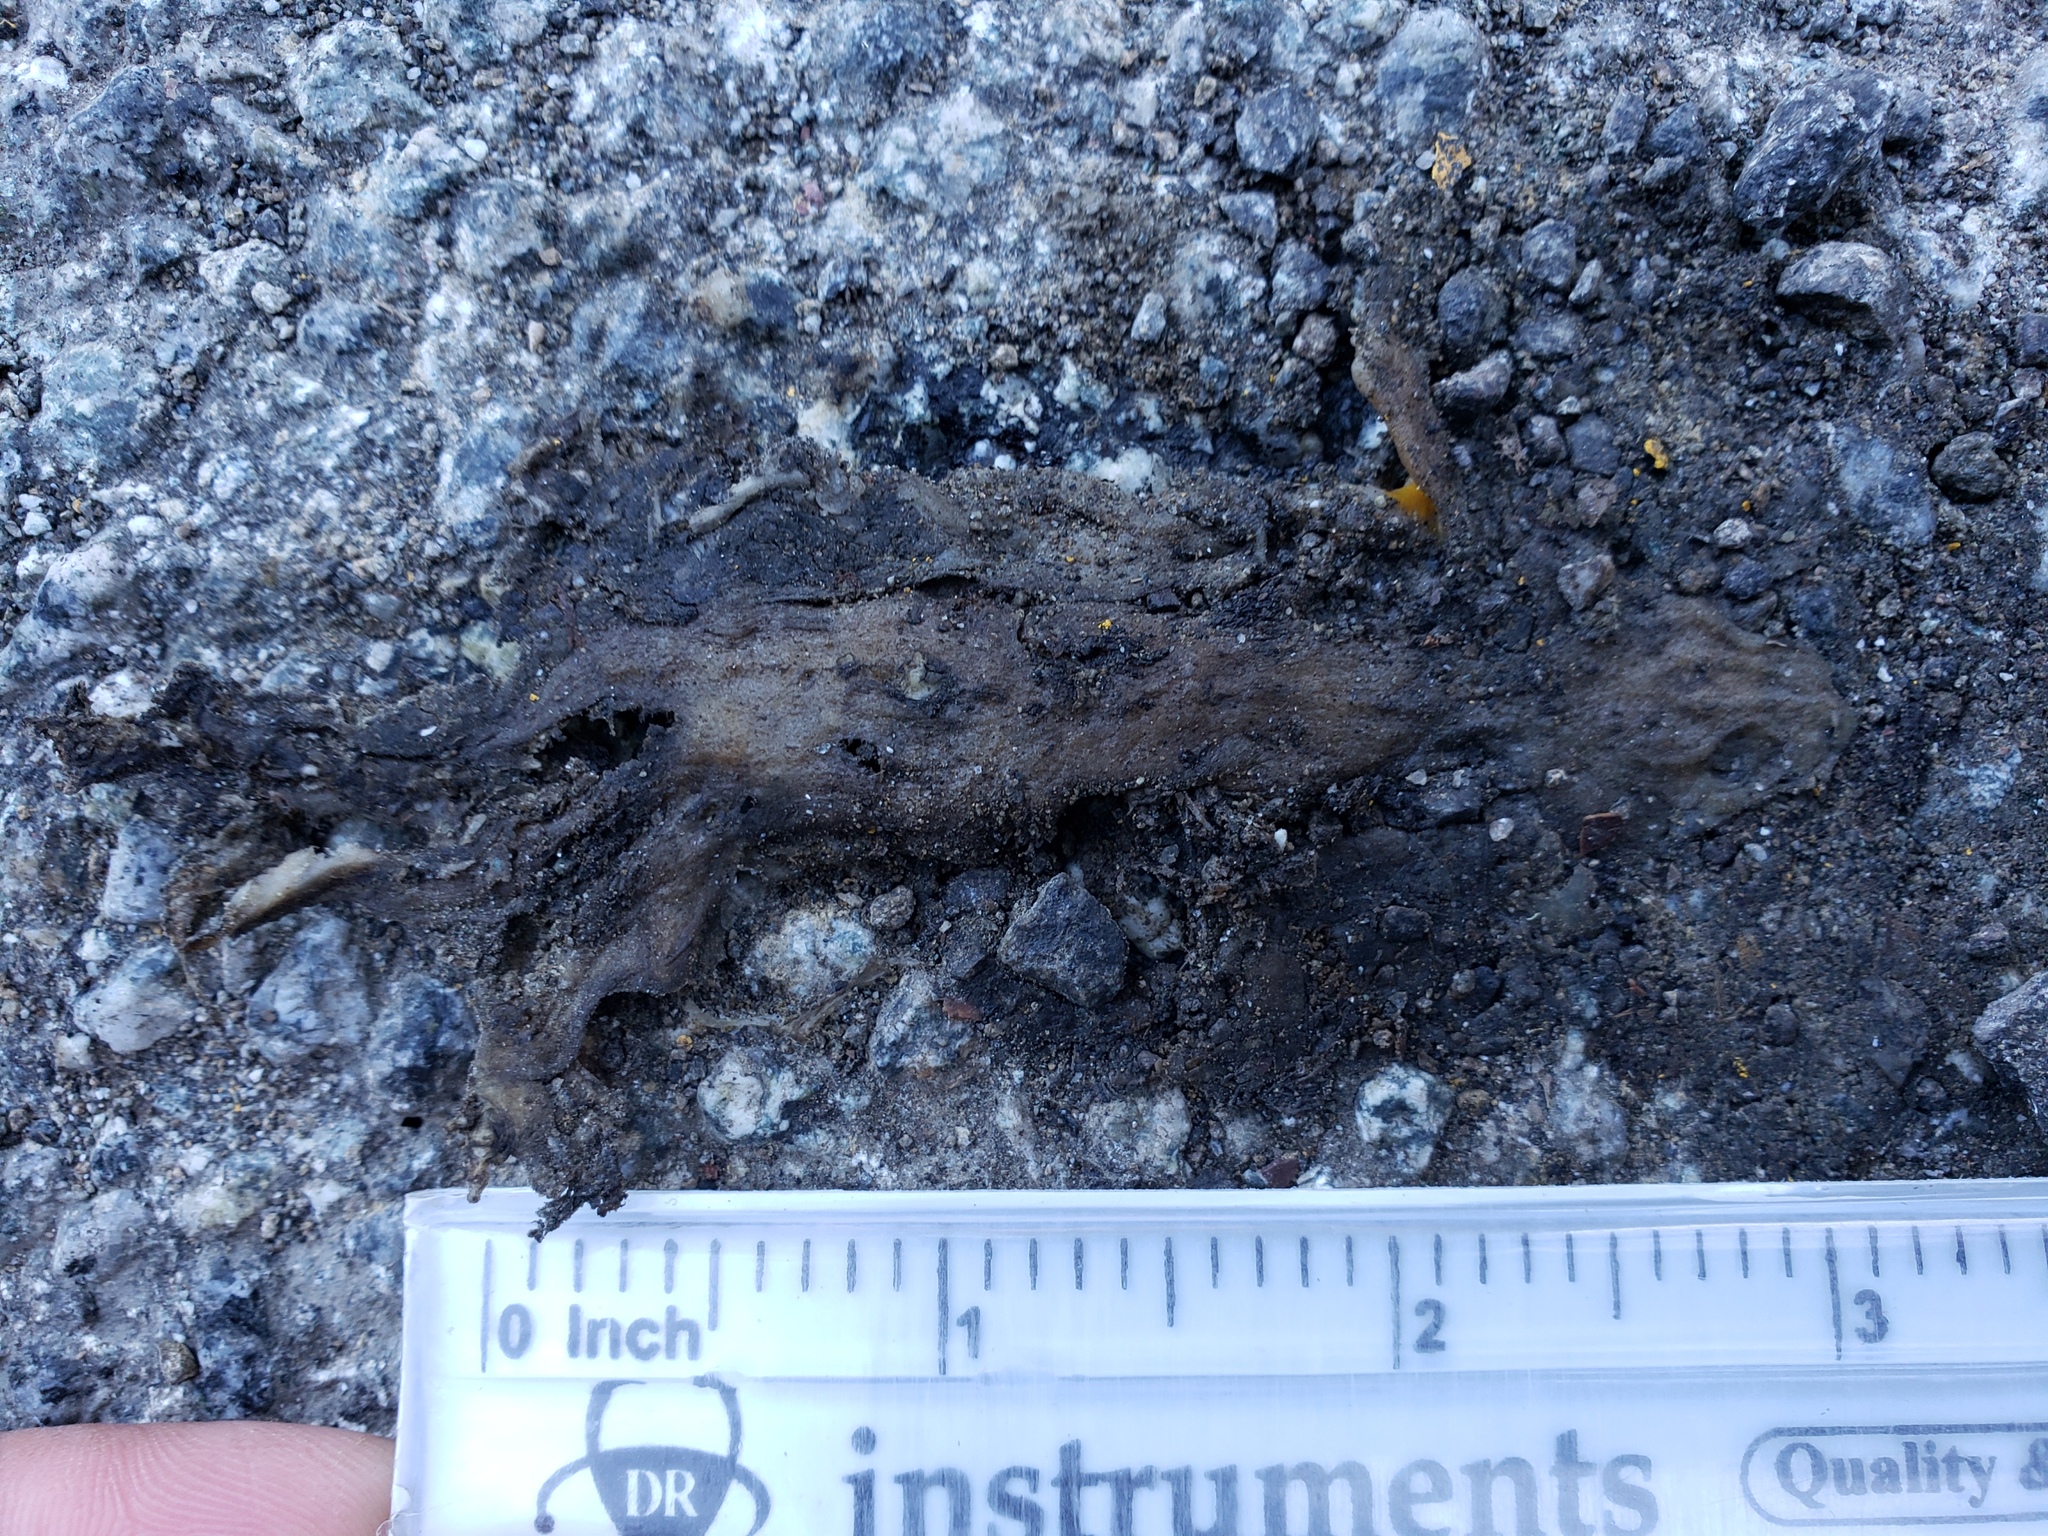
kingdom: Animalia
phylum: Chordata
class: Amphibia
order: Caudata
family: Salamandridae
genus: Taricha
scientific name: Taricha
